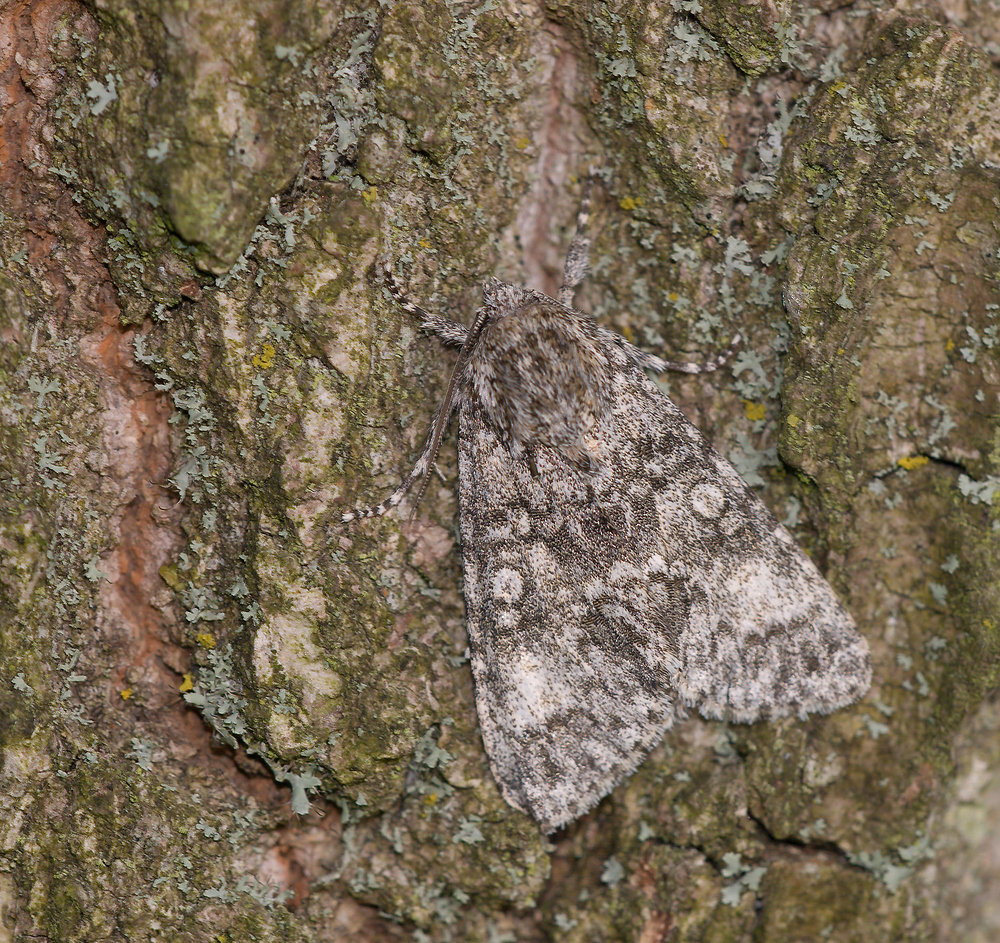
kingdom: Animalia
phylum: Arthropoda
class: Insecta
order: Lepidoptera
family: Noctuidae
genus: Acronicta
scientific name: Acronicta megacephala
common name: Poplar grey
